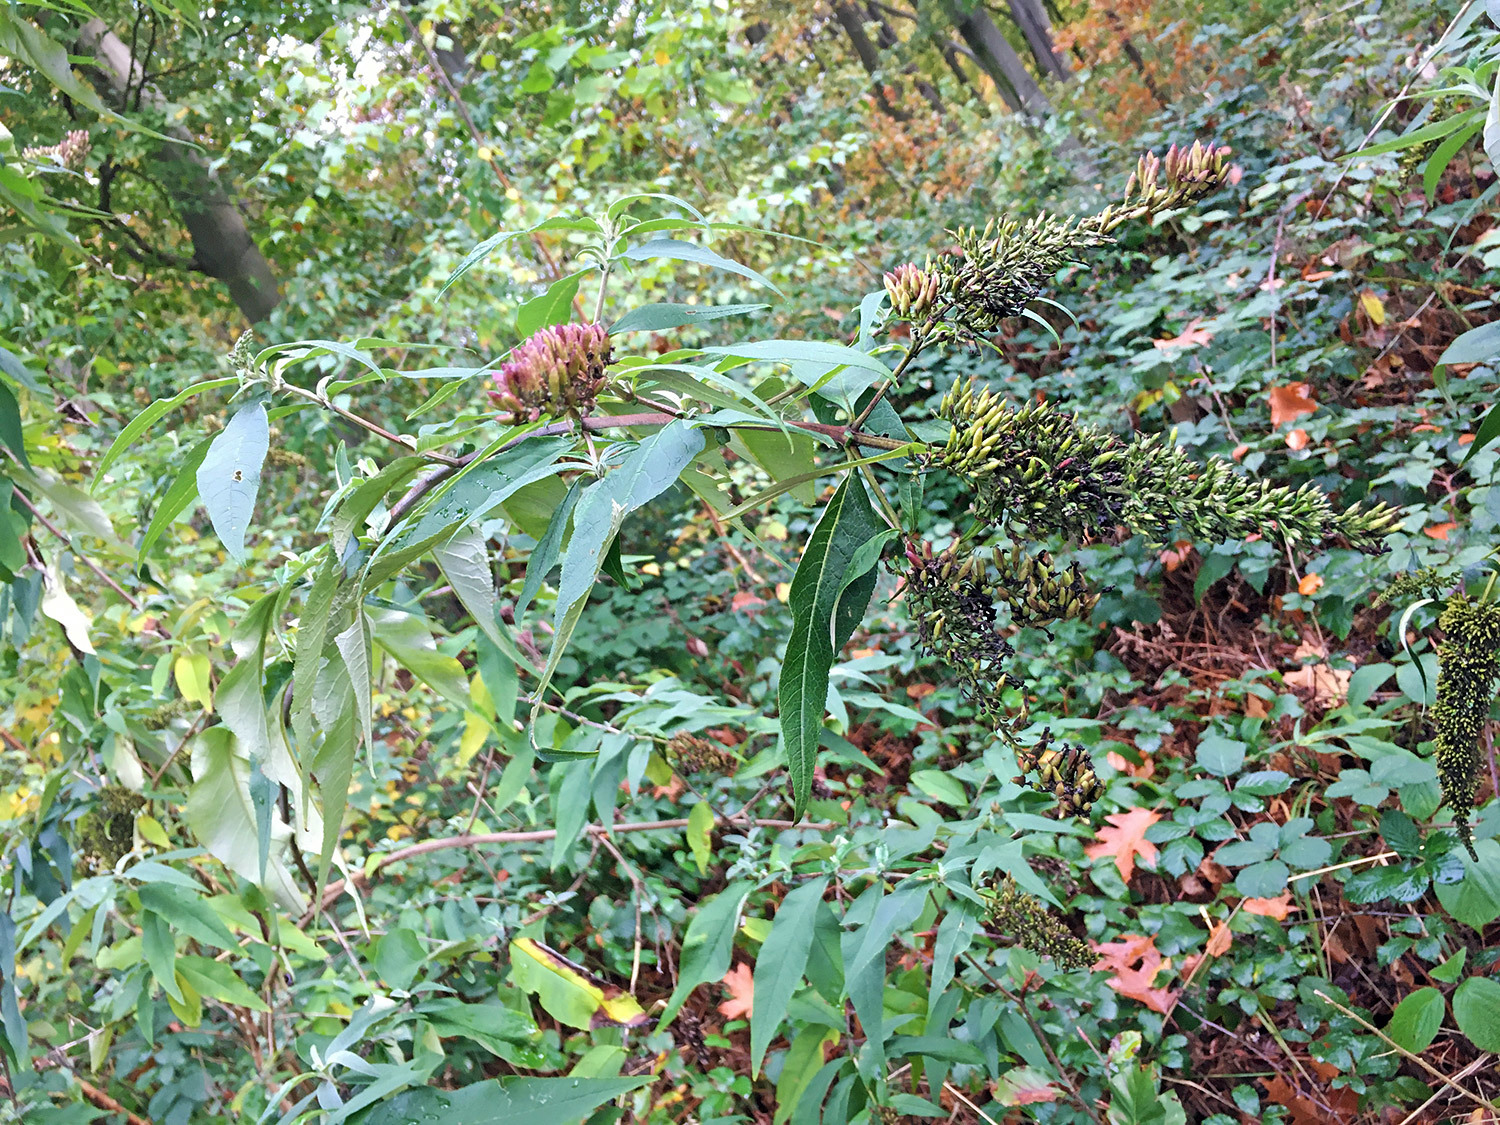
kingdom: Plantae
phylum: Tracheophyta
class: Magnoliopsida
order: Lamiales
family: Scrophulariaceae
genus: Buddleja
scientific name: Buddleja davidii
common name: Butterfly-bush
